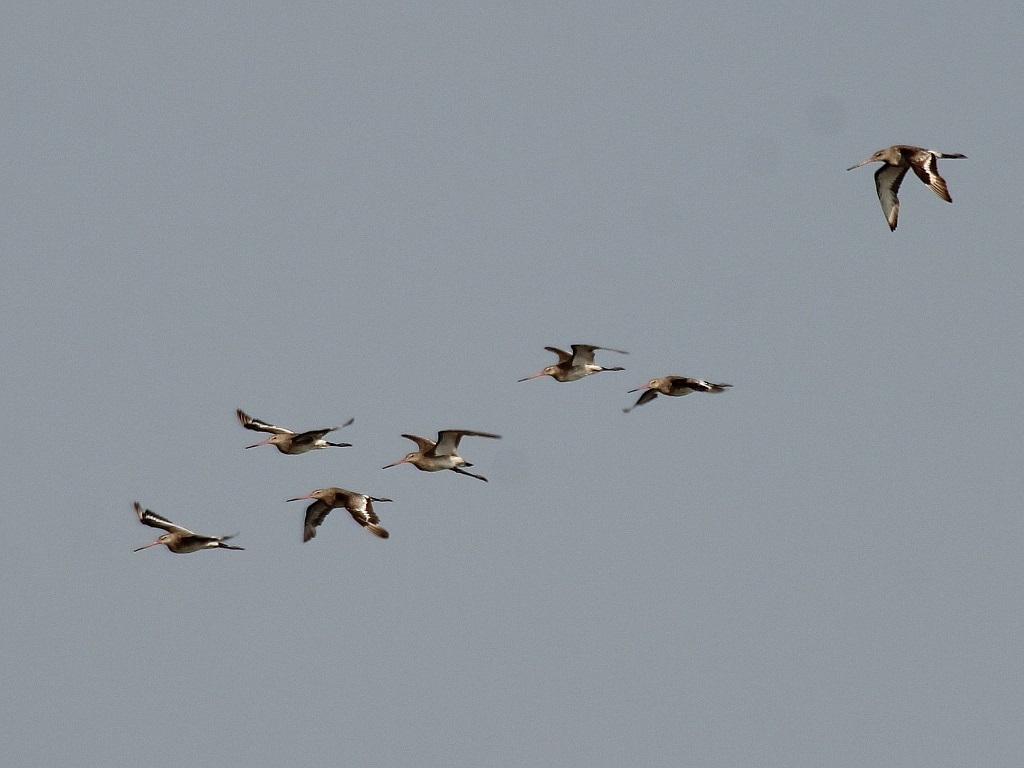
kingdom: Animalia
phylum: Chordata
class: Aves
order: Charadriiformes
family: Scolopacidae
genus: Limosa
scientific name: Limosa limosa
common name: Black-tailed godwit
